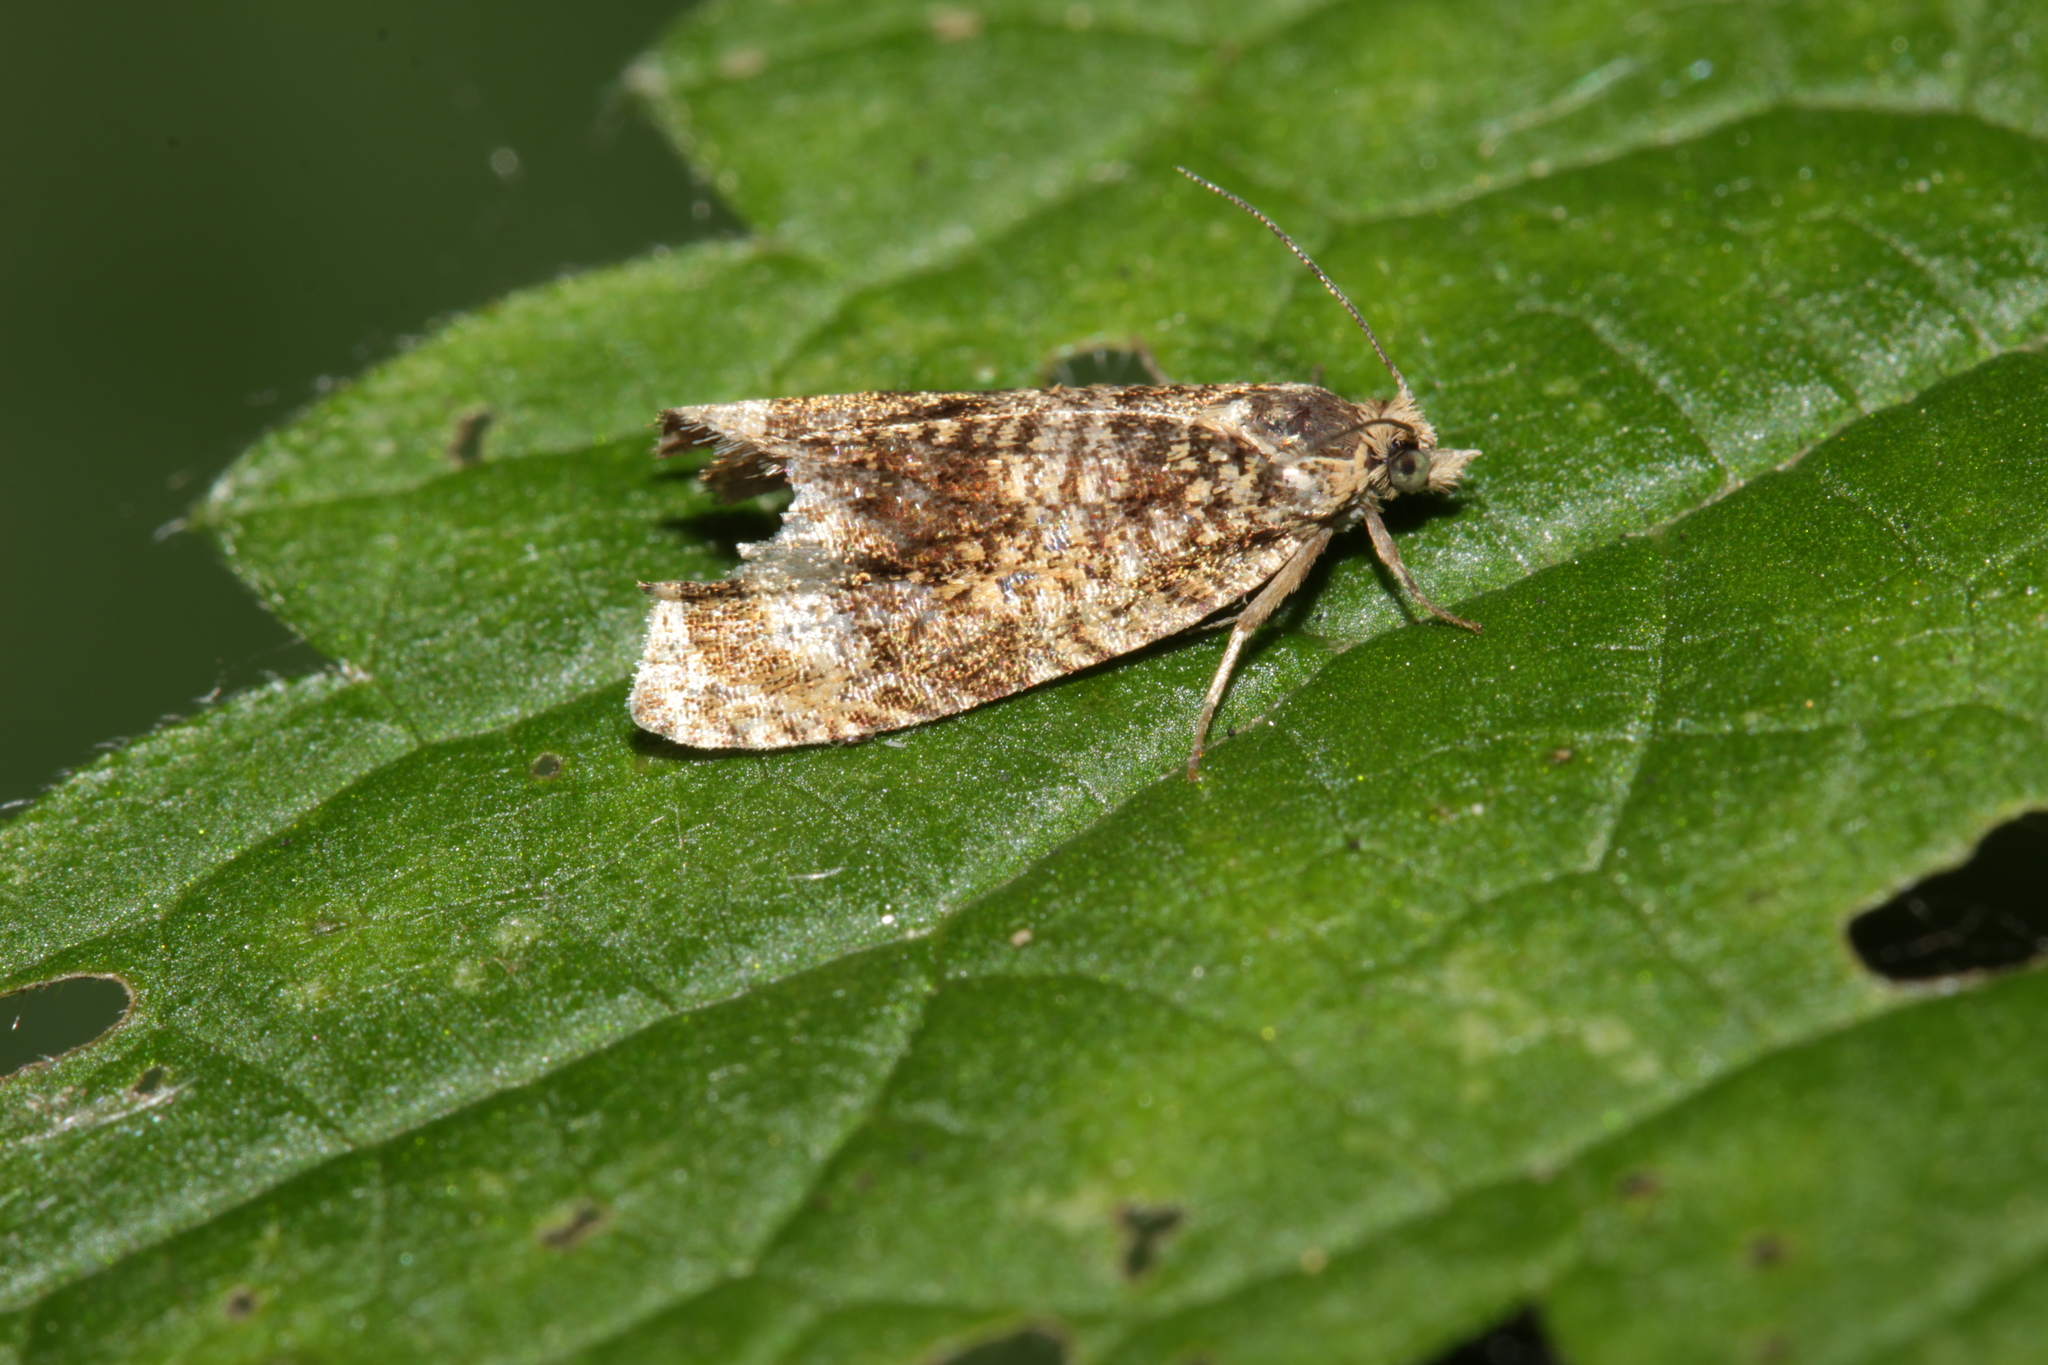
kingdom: Animalia
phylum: Arthropoda
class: Insecta
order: Lepidoptera
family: Tortricidae
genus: Syricoris
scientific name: Syricoris lacunana
